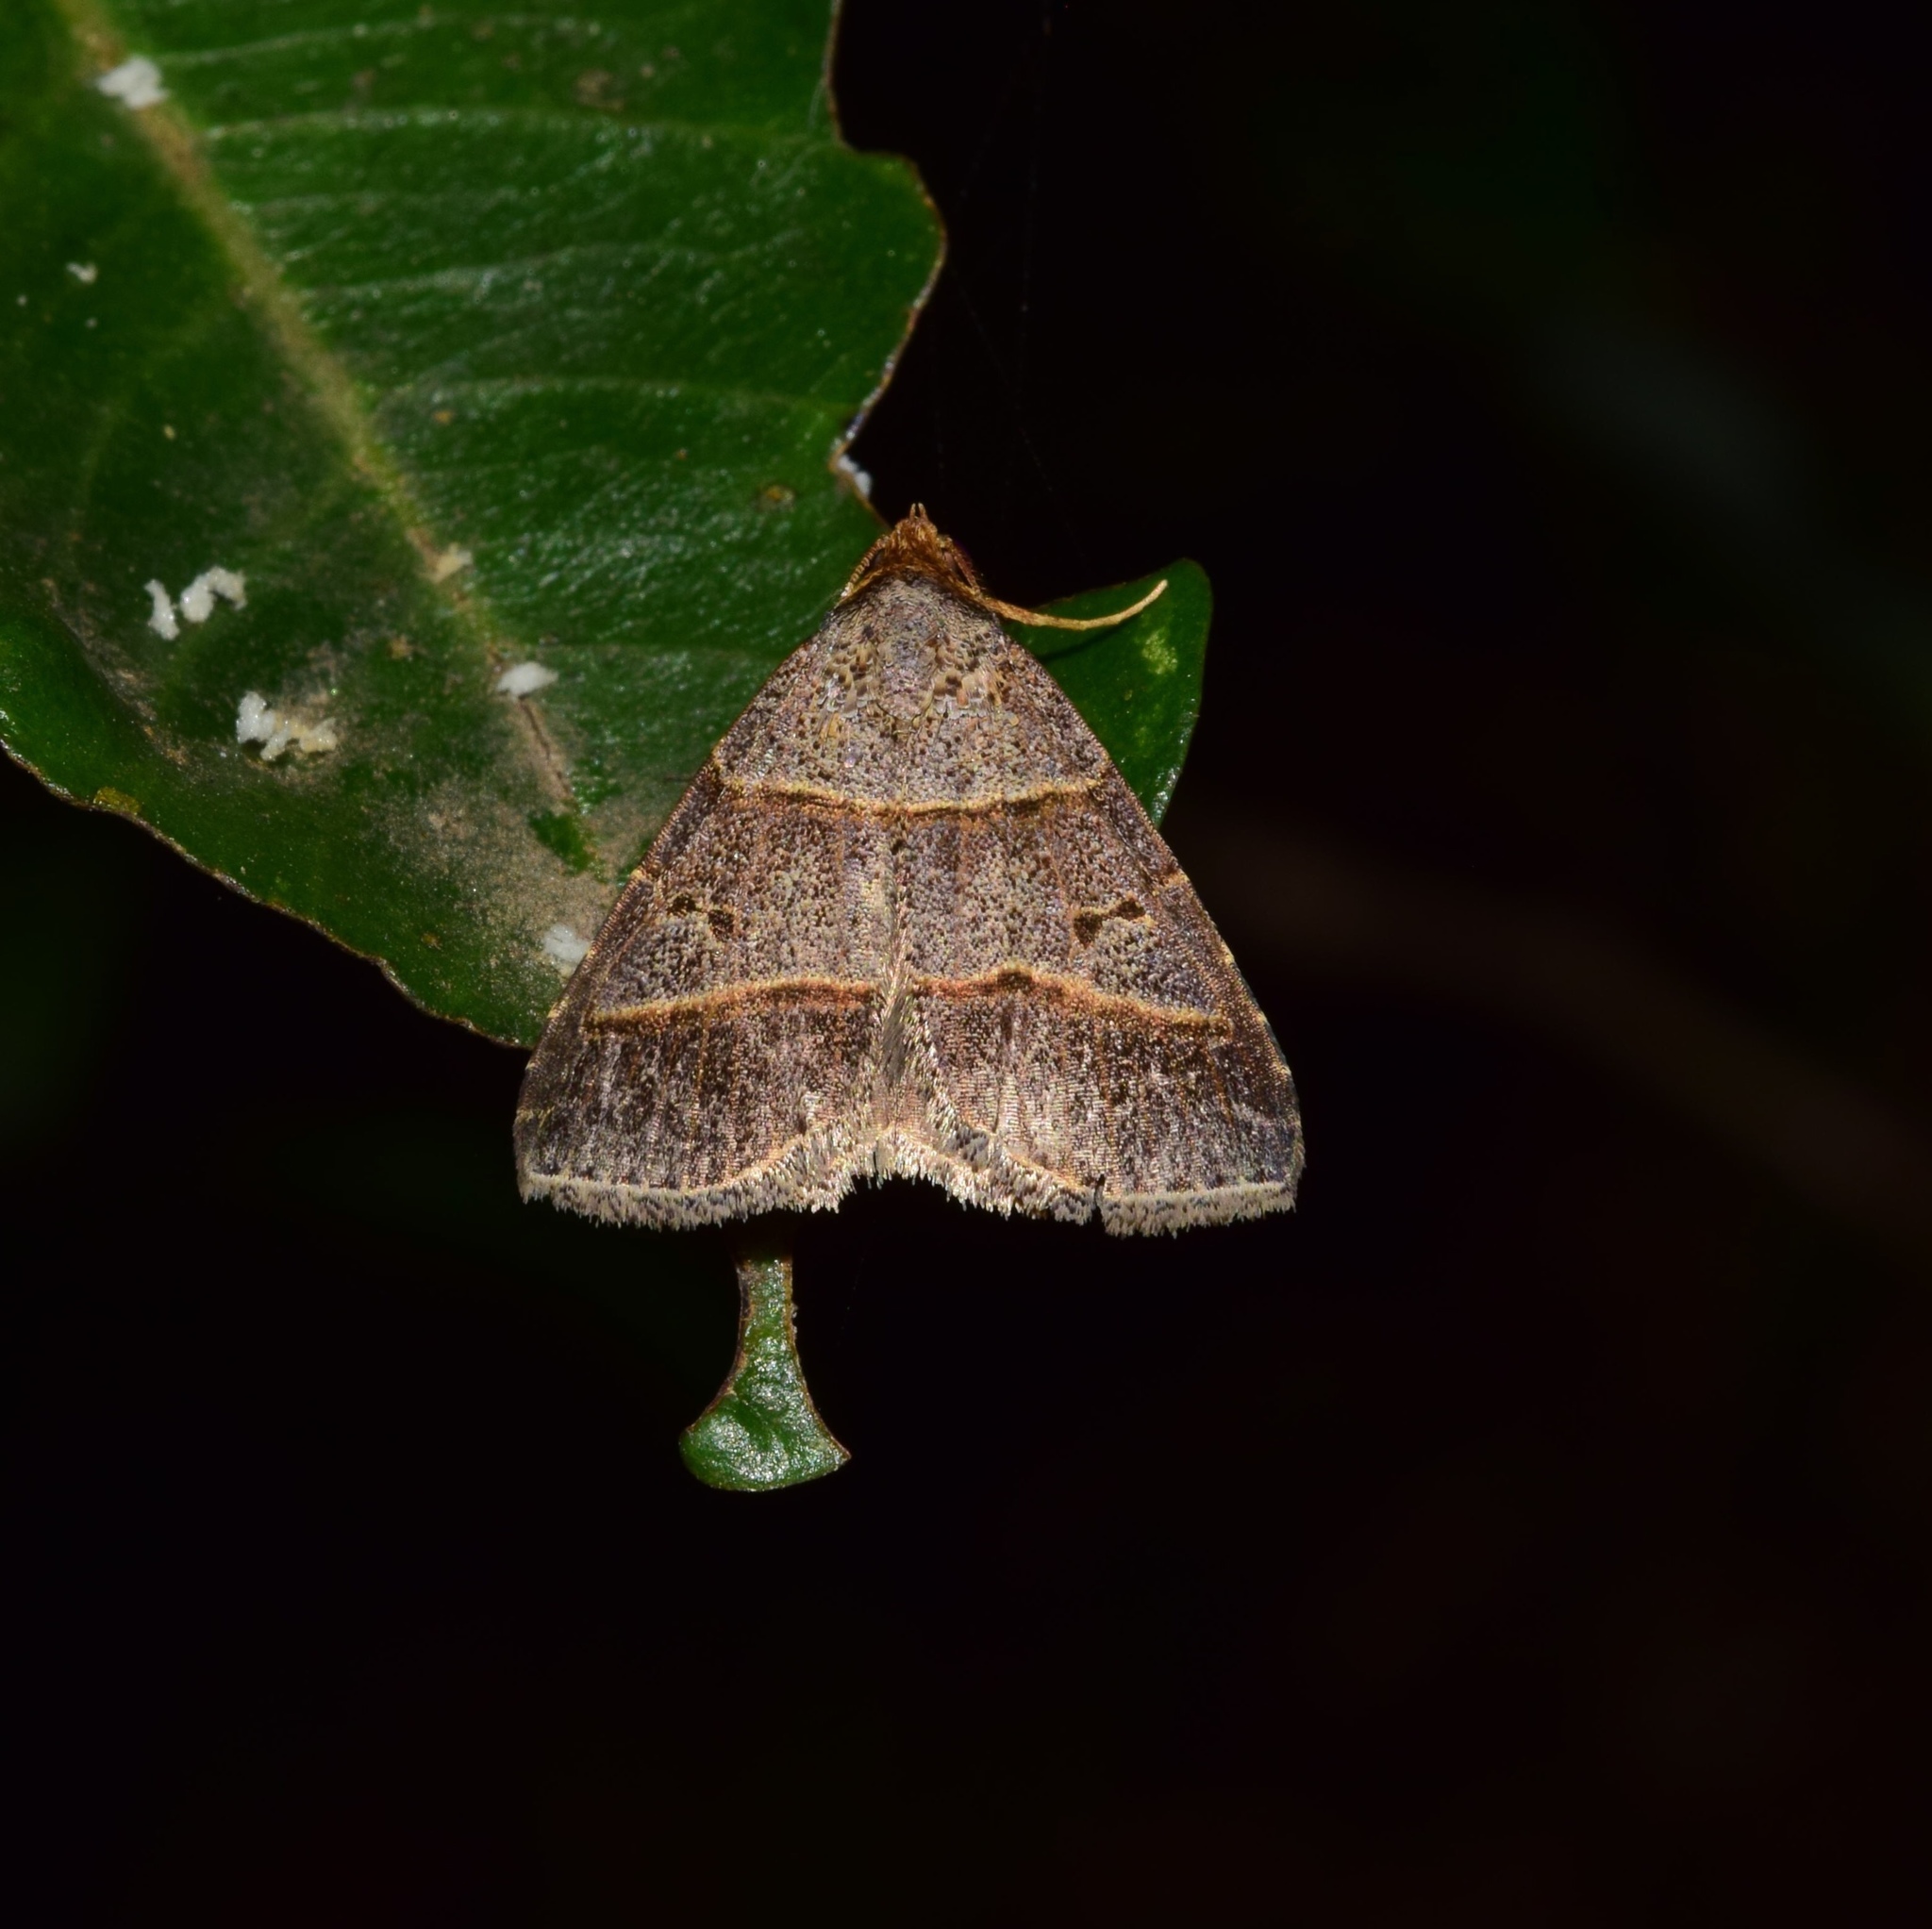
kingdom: Animalia
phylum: Arthropoda
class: Insecta
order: Lepidoptera
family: Erebidae
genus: Plecoptera
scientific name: Plecoptera laniata
